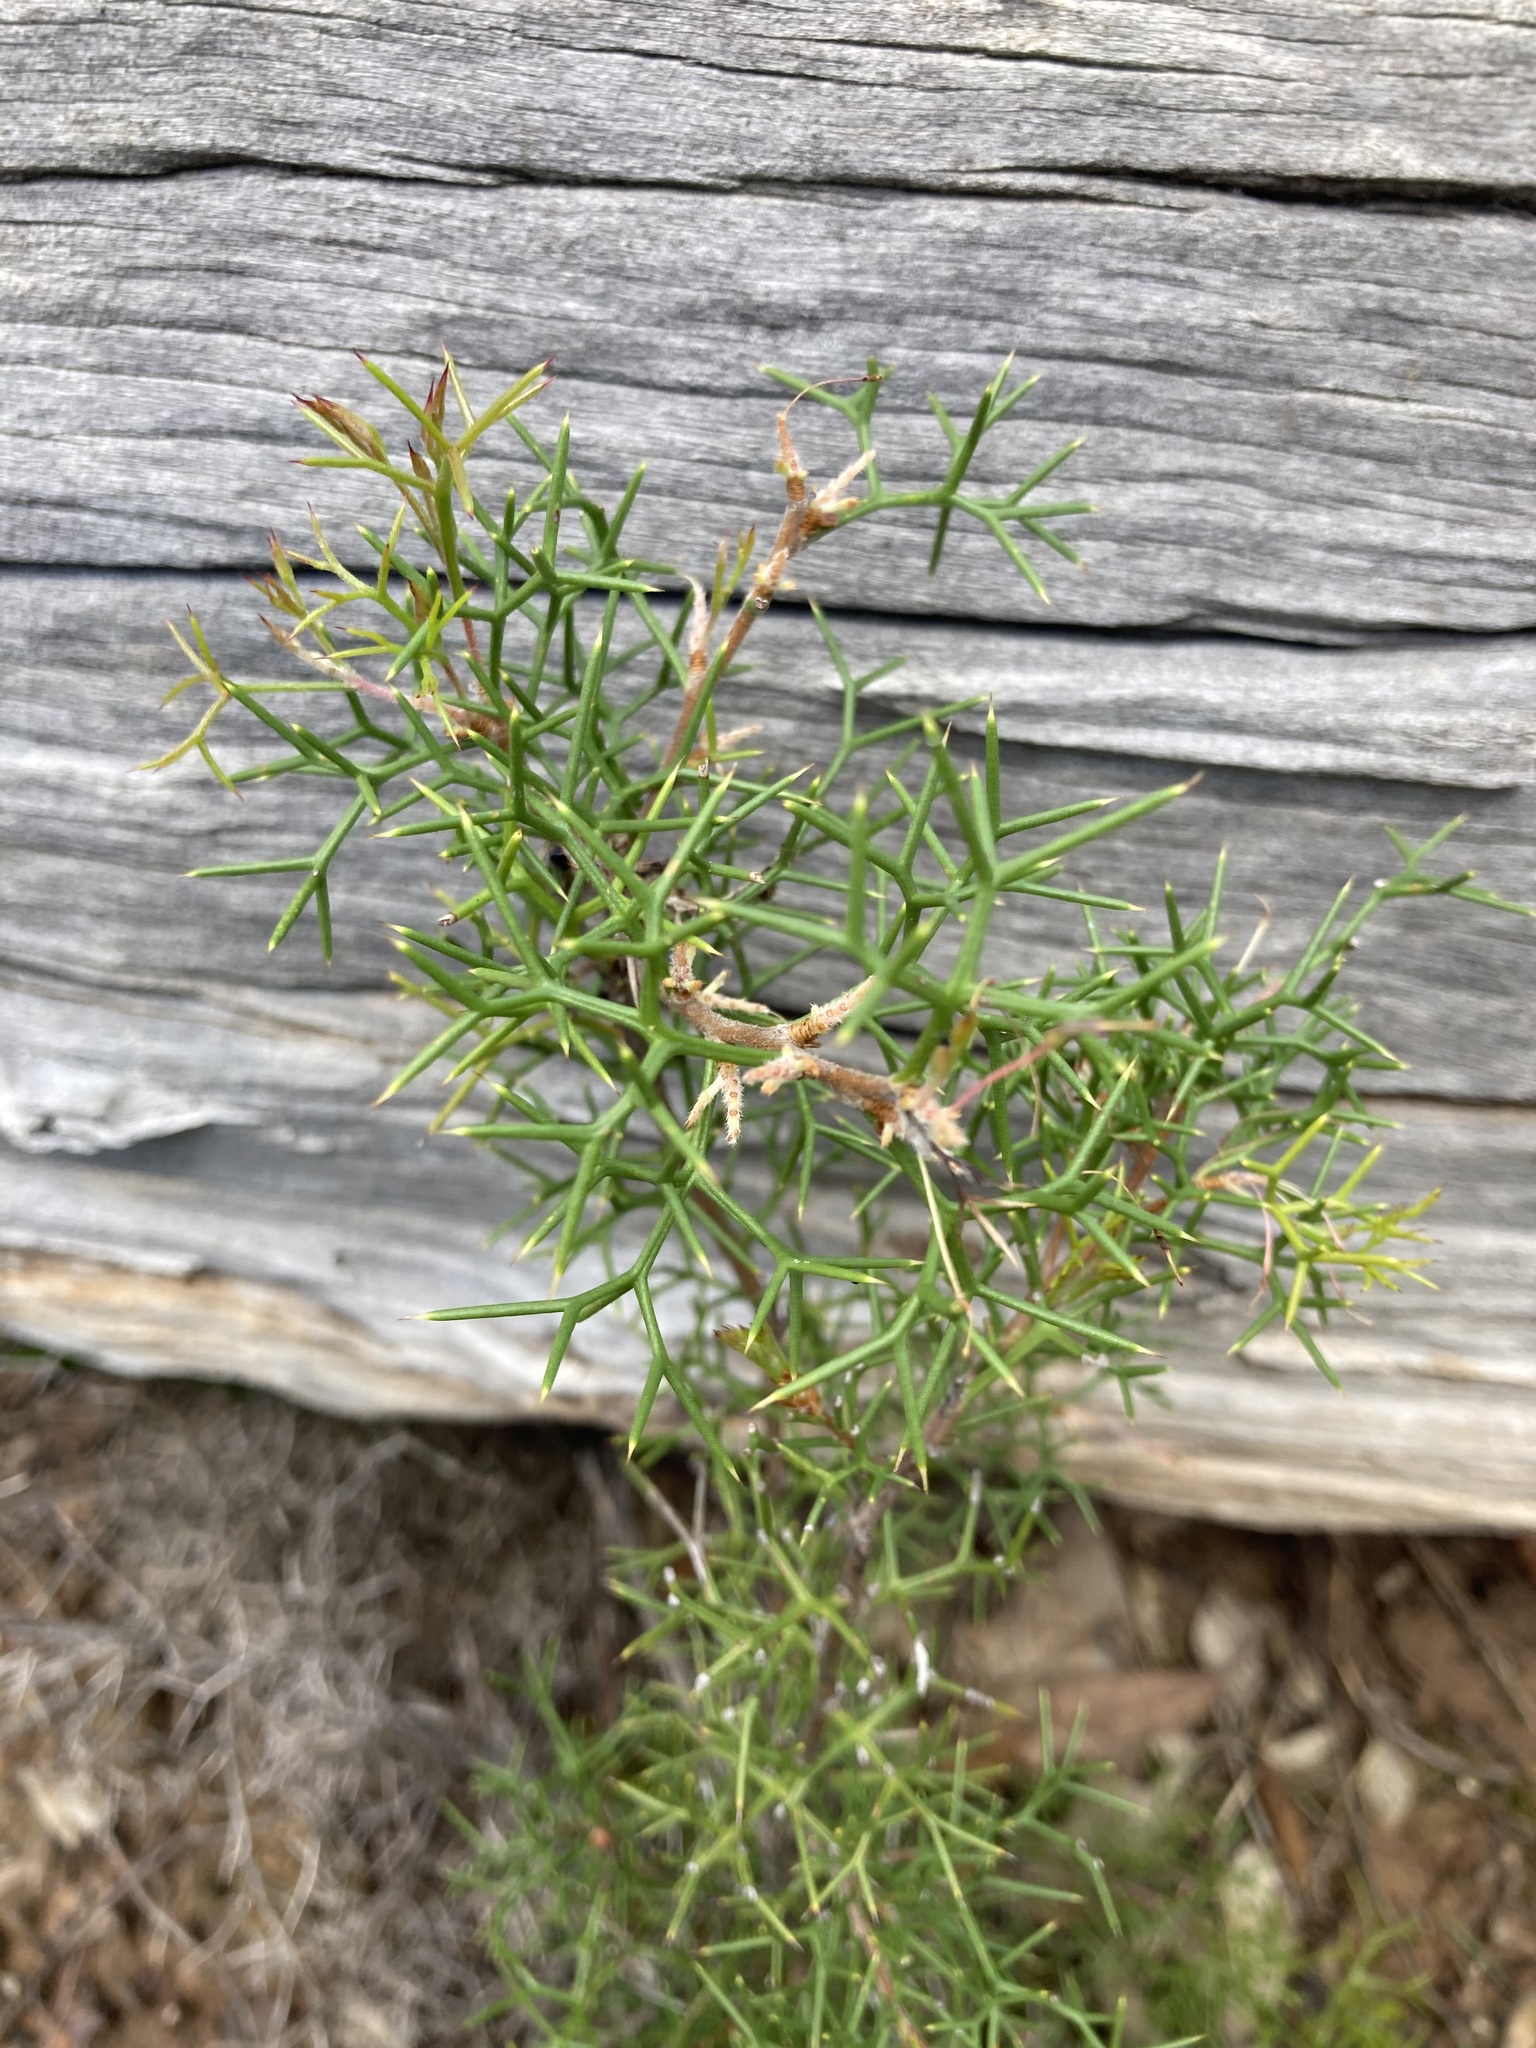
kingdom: Plantae
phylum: Tracheophyta
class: Magnoliopsida
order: Proteales
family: Proteaceae
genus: Hakea
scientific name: Hakea lissocarpha
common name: Honey bush
